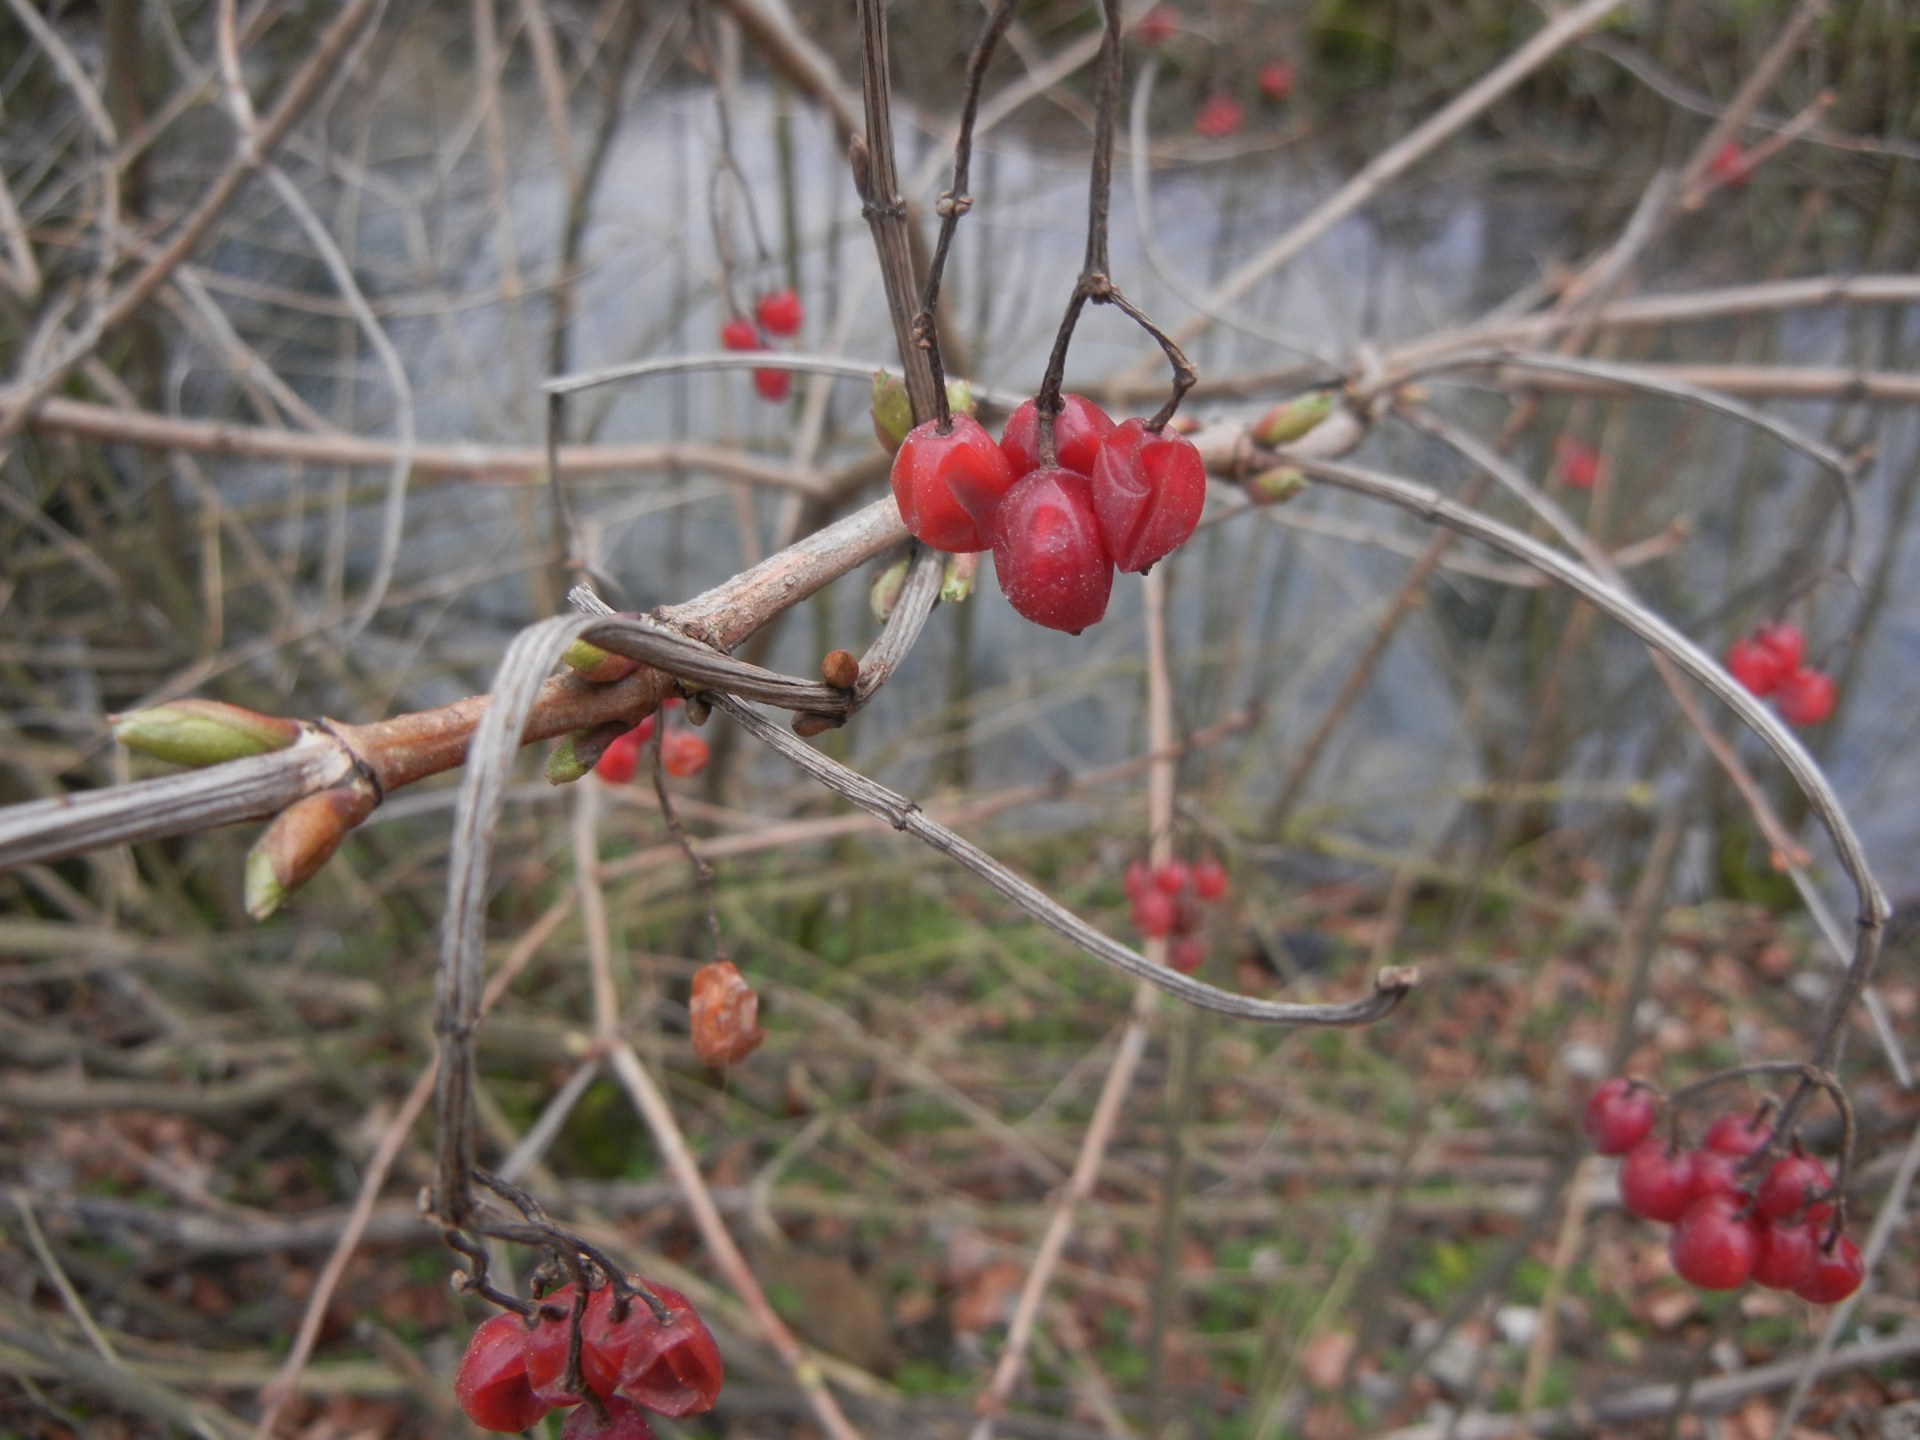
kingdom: Plantae
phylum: Tracheophyta
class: Magnoliopsida
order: Dipsacales
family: Viburnaceae
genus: Viburnum
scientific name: Viburnum opulus
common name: Guelder-rose
